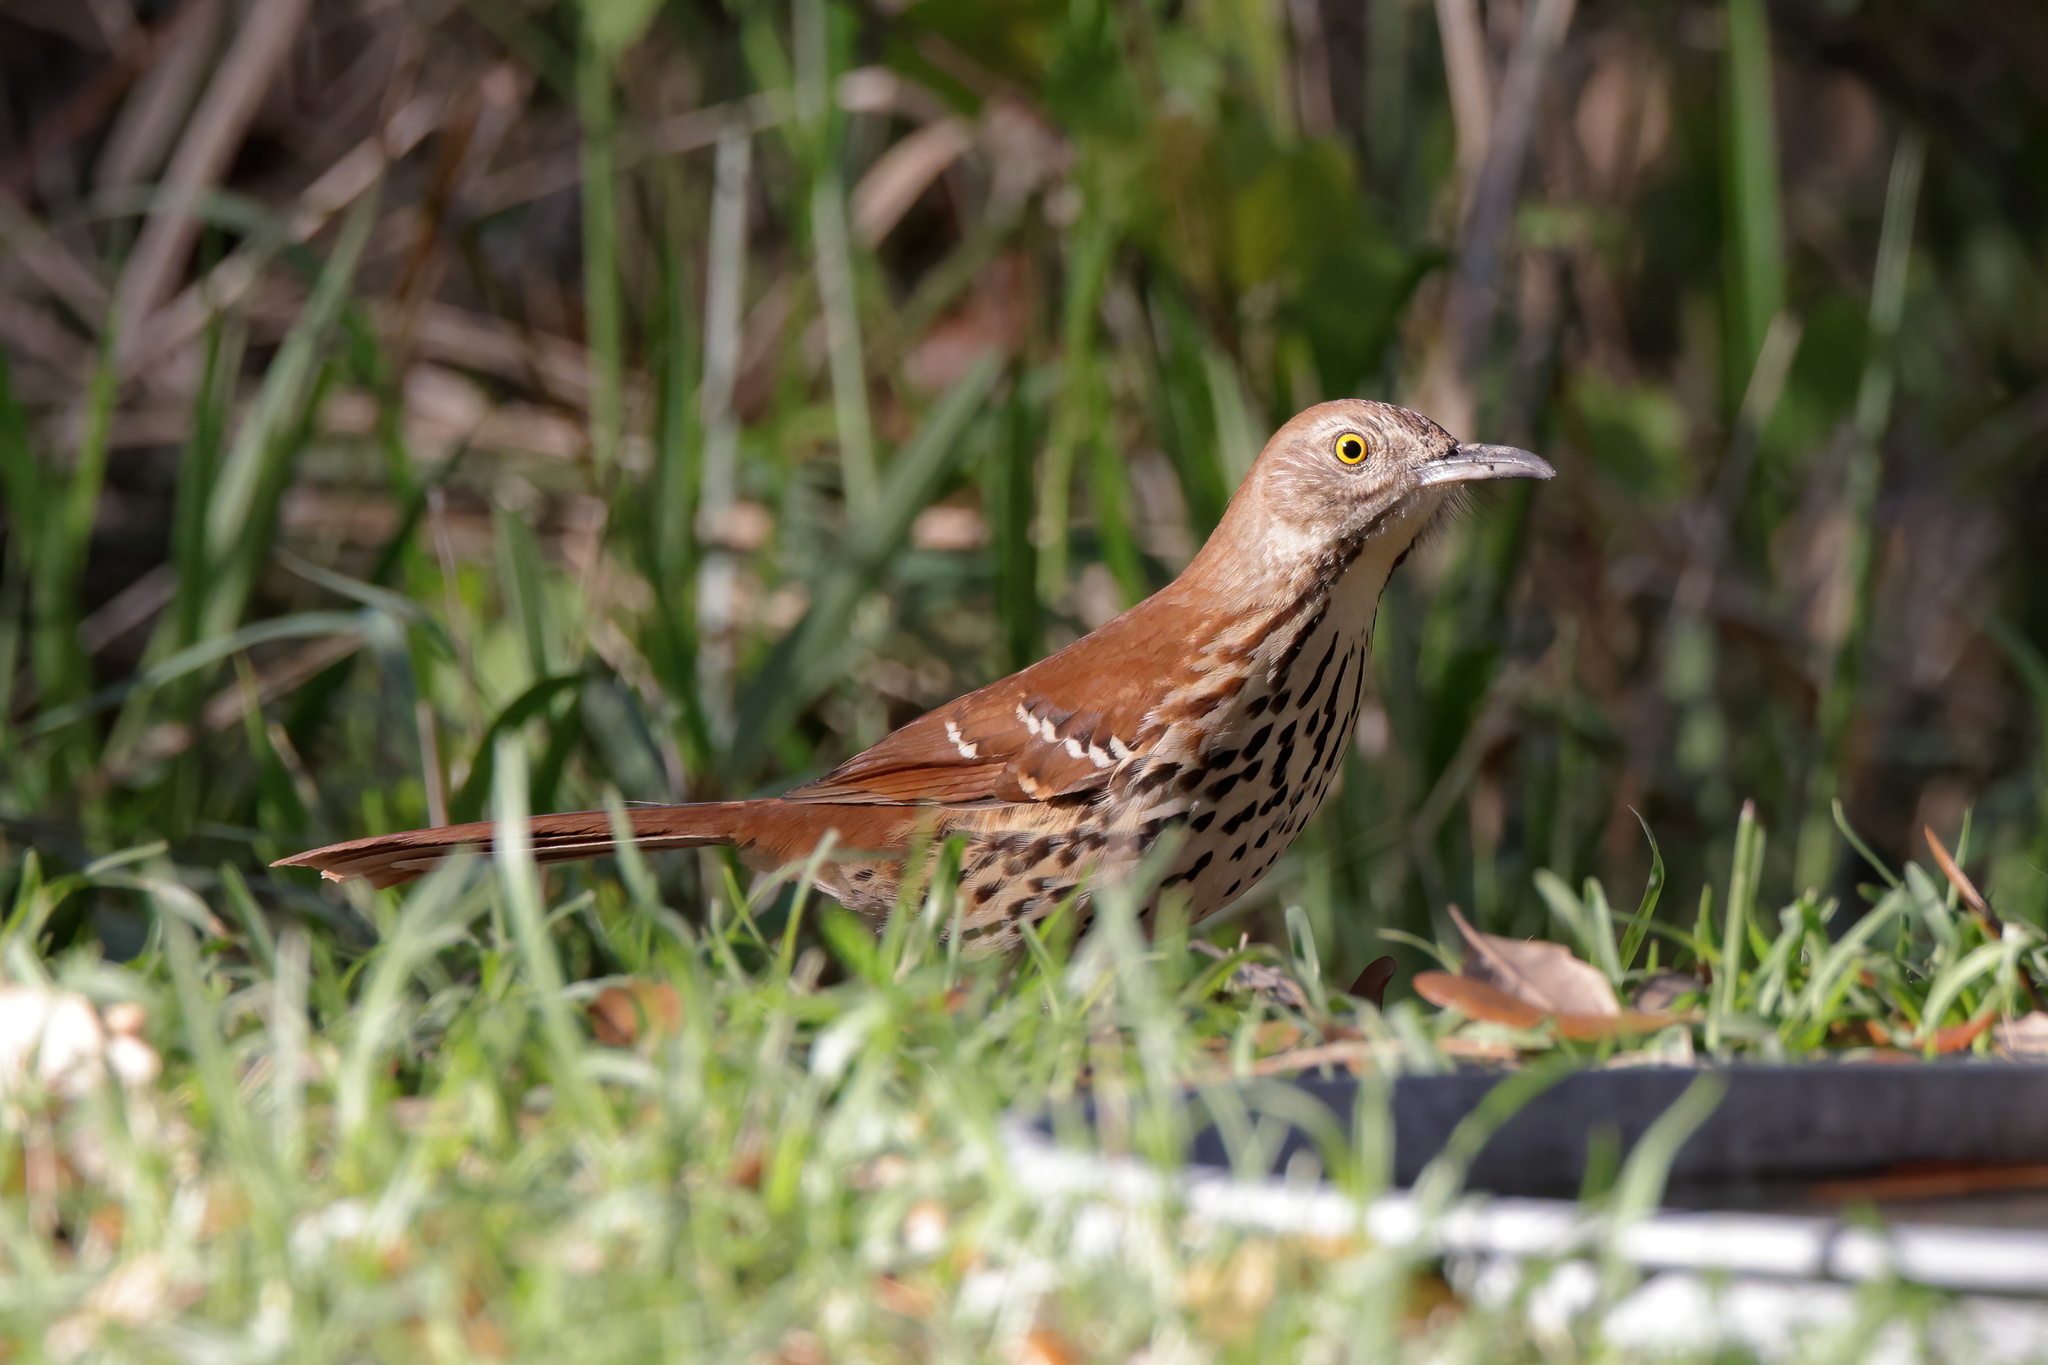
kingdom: Animalia
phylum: Chordata
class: Aves
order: Passeriformes
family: Mimidae
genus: Toxostoma
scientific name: Toxostoma rufum
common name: Brown thrasher
